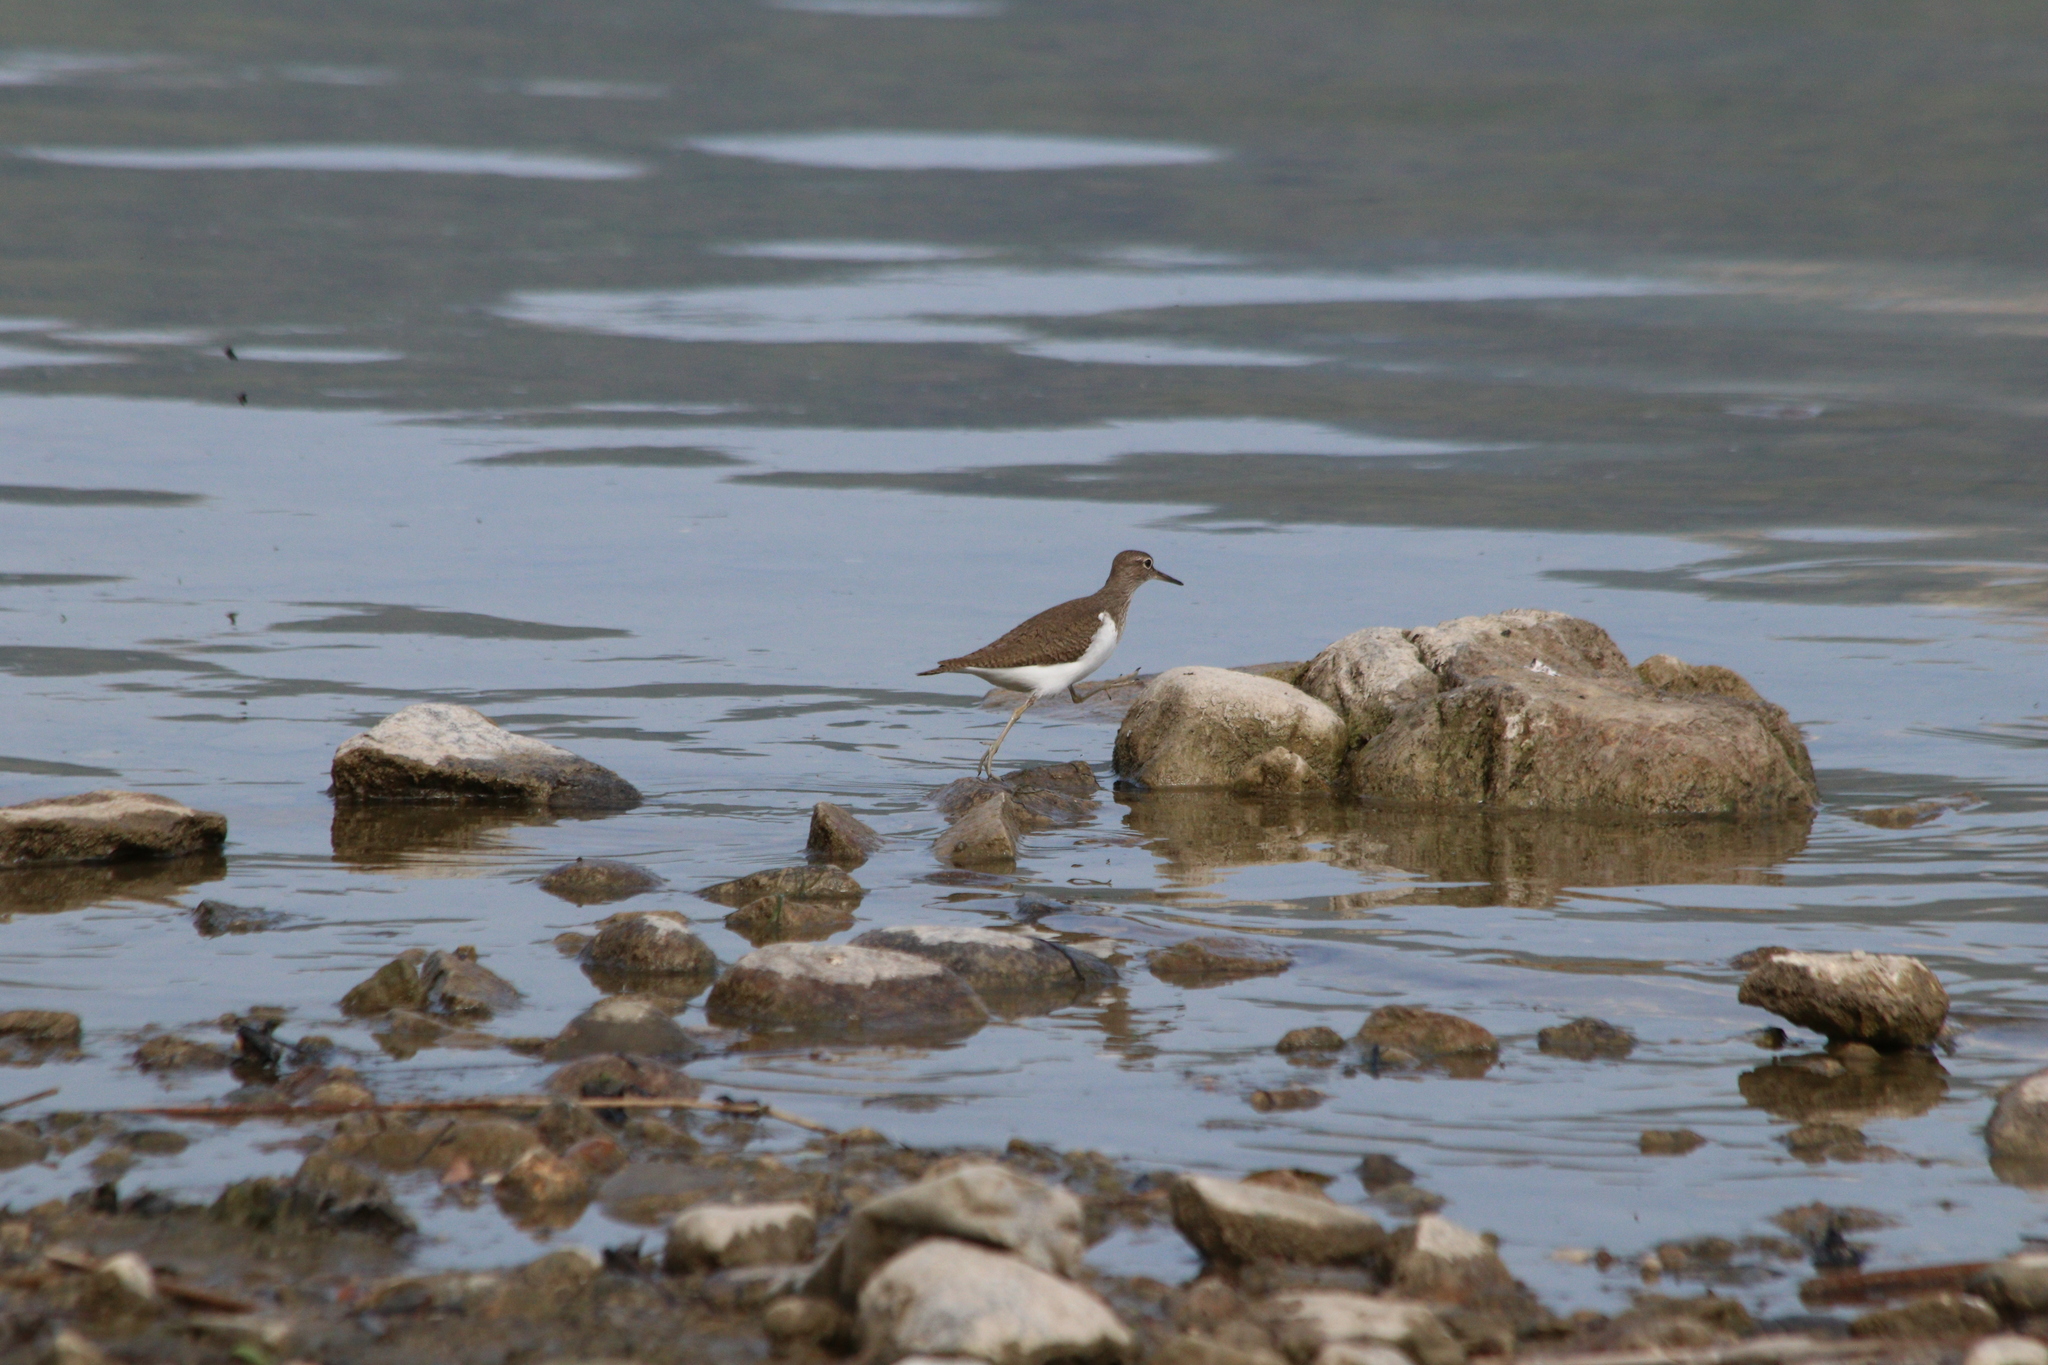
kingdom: Animalia
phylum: Chordata
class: Aves
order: Charadriiformes
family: Scolopacidae
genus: Actitis
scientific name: Actitis hypoleucos
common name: Common sandpiper
